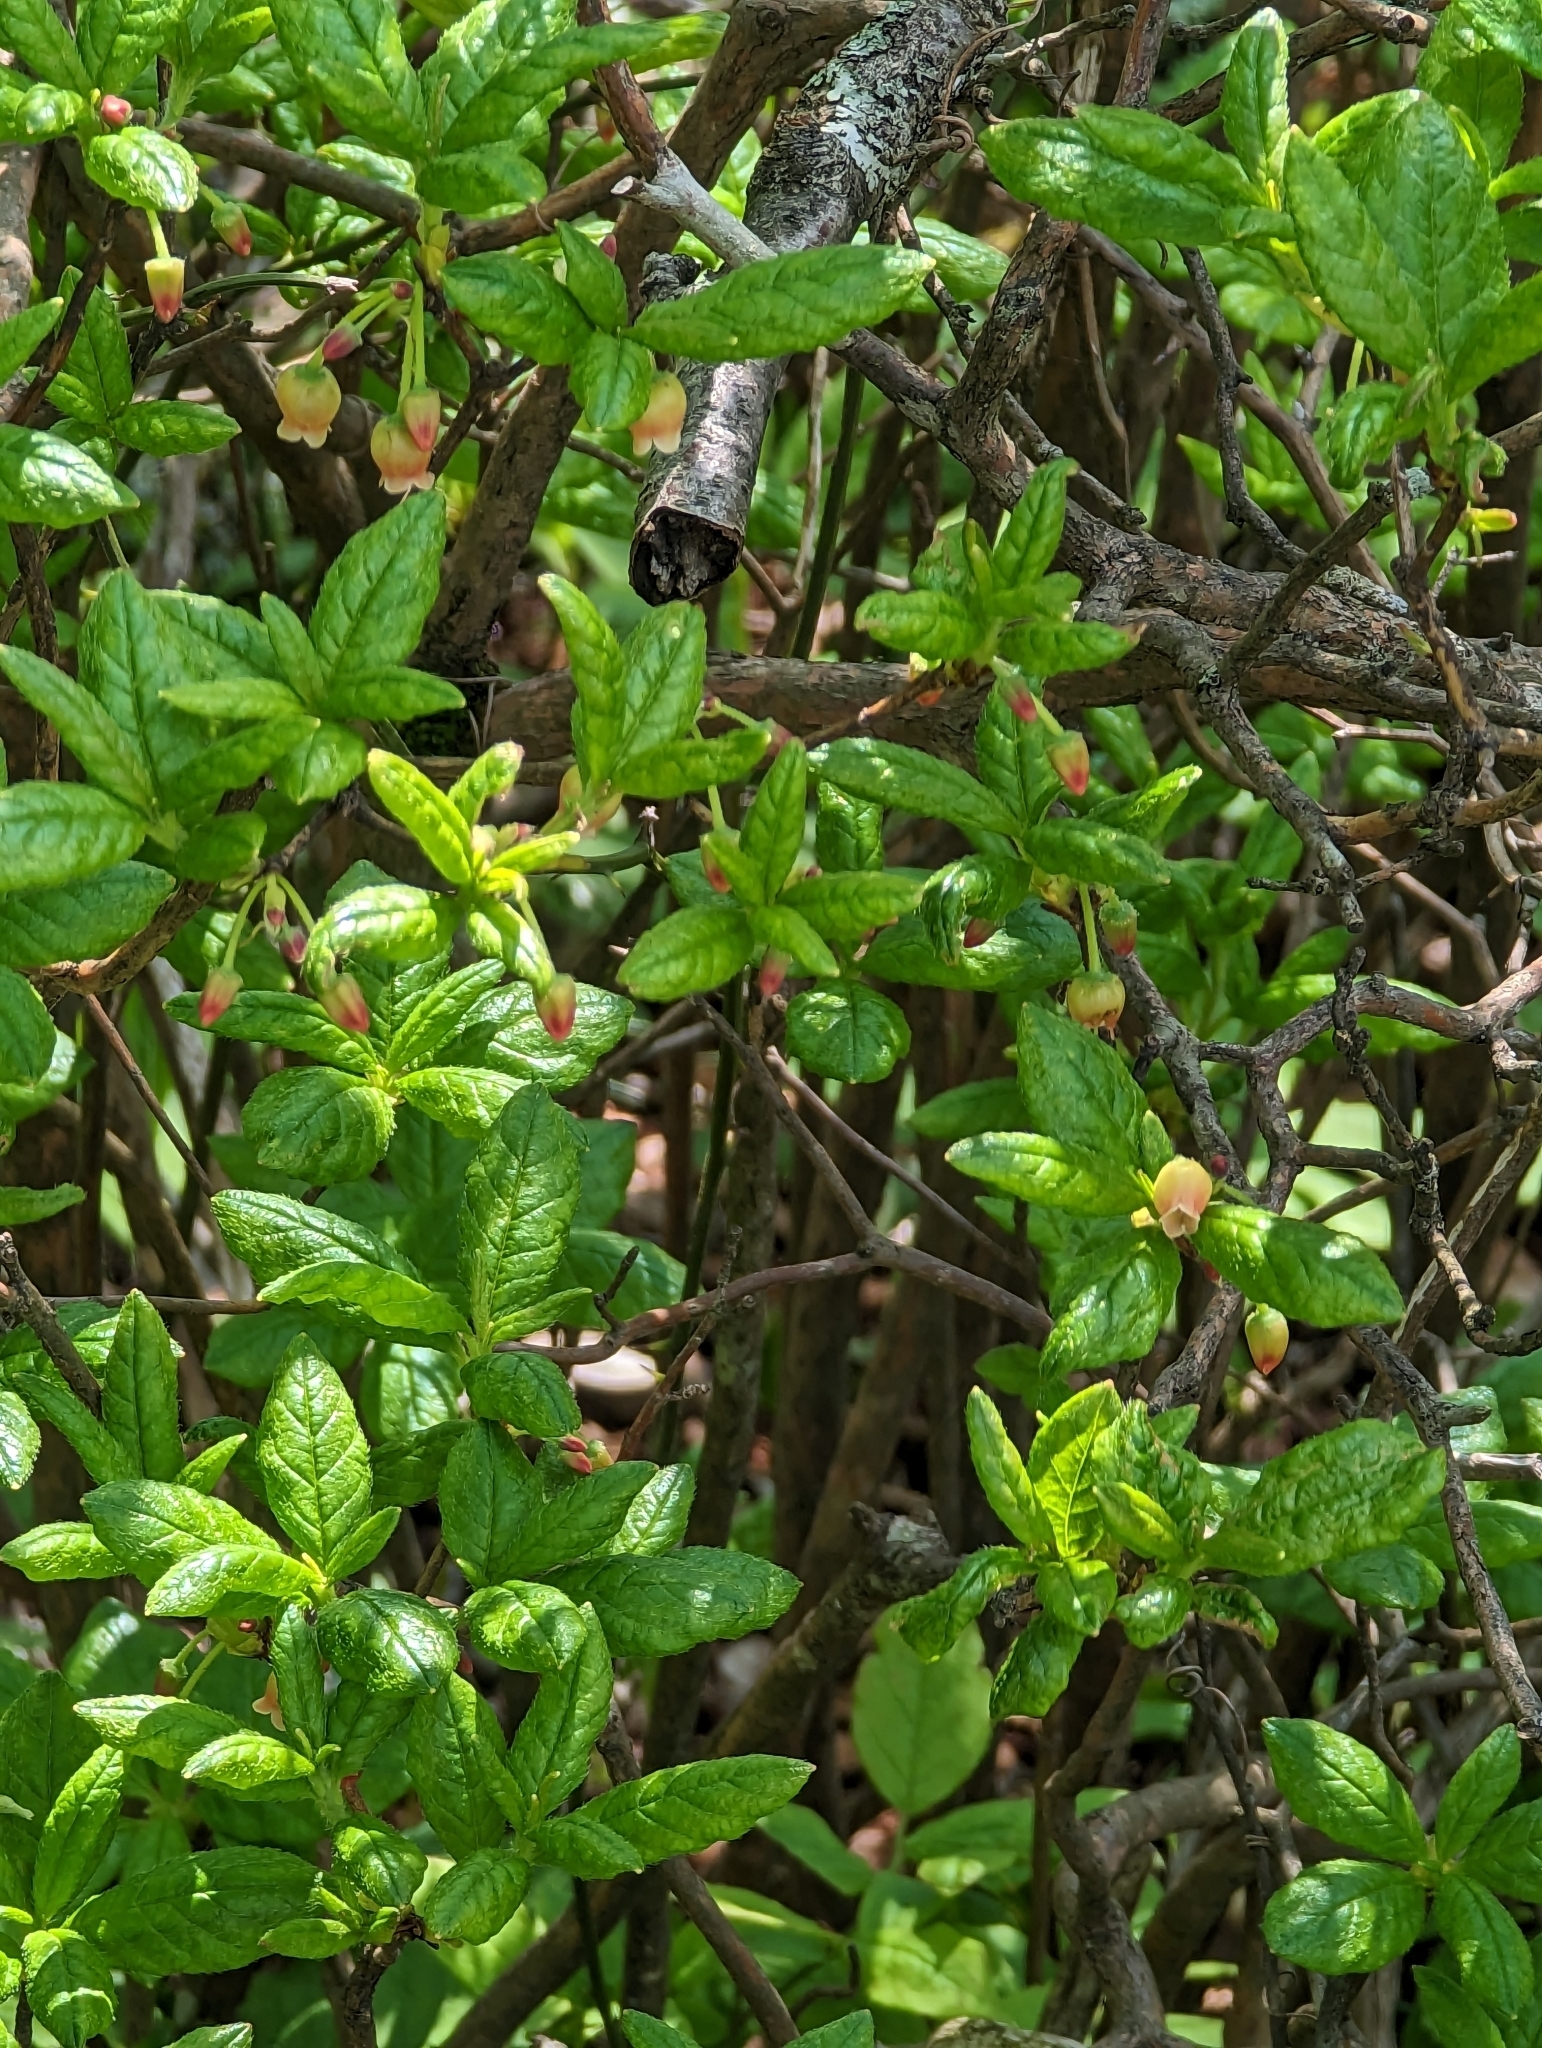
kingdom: Plantae
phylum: Tracheophyta
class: Magnoliopsida
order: Ericales
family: Ericaceae
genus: Rhododendron
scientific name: Rhododendron pilosum
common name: Hairy minniebush
